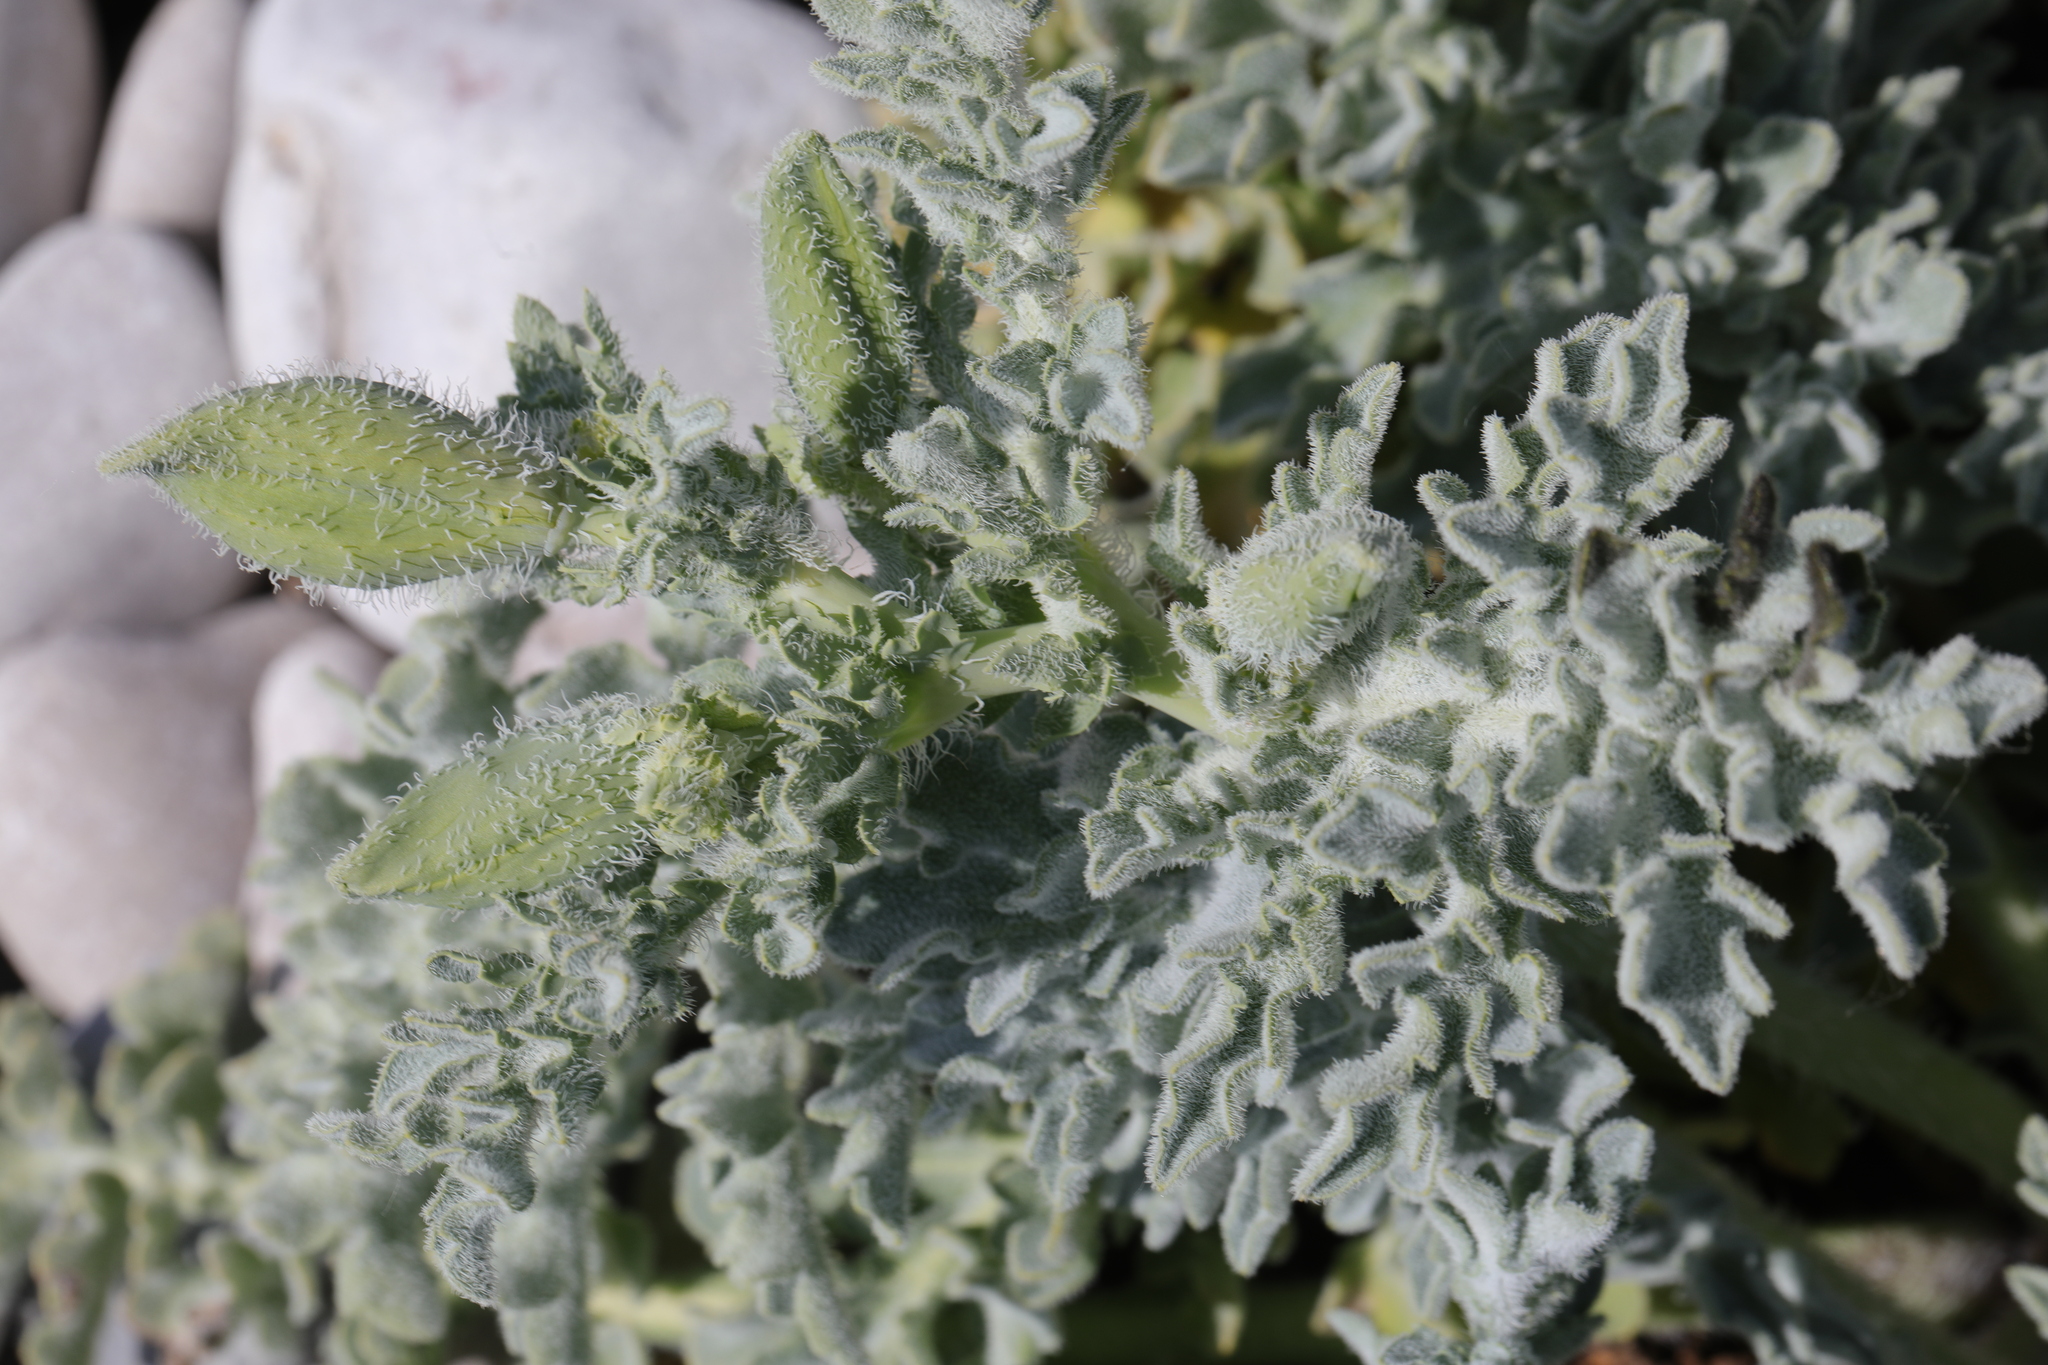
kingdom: Plantae
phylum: Tracheophyta
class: Magnoliopsida
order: Ranunculales
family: Papaveraceae
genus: Glaucium
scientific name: Glaucium flavum
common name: Yellow horned-poppy
